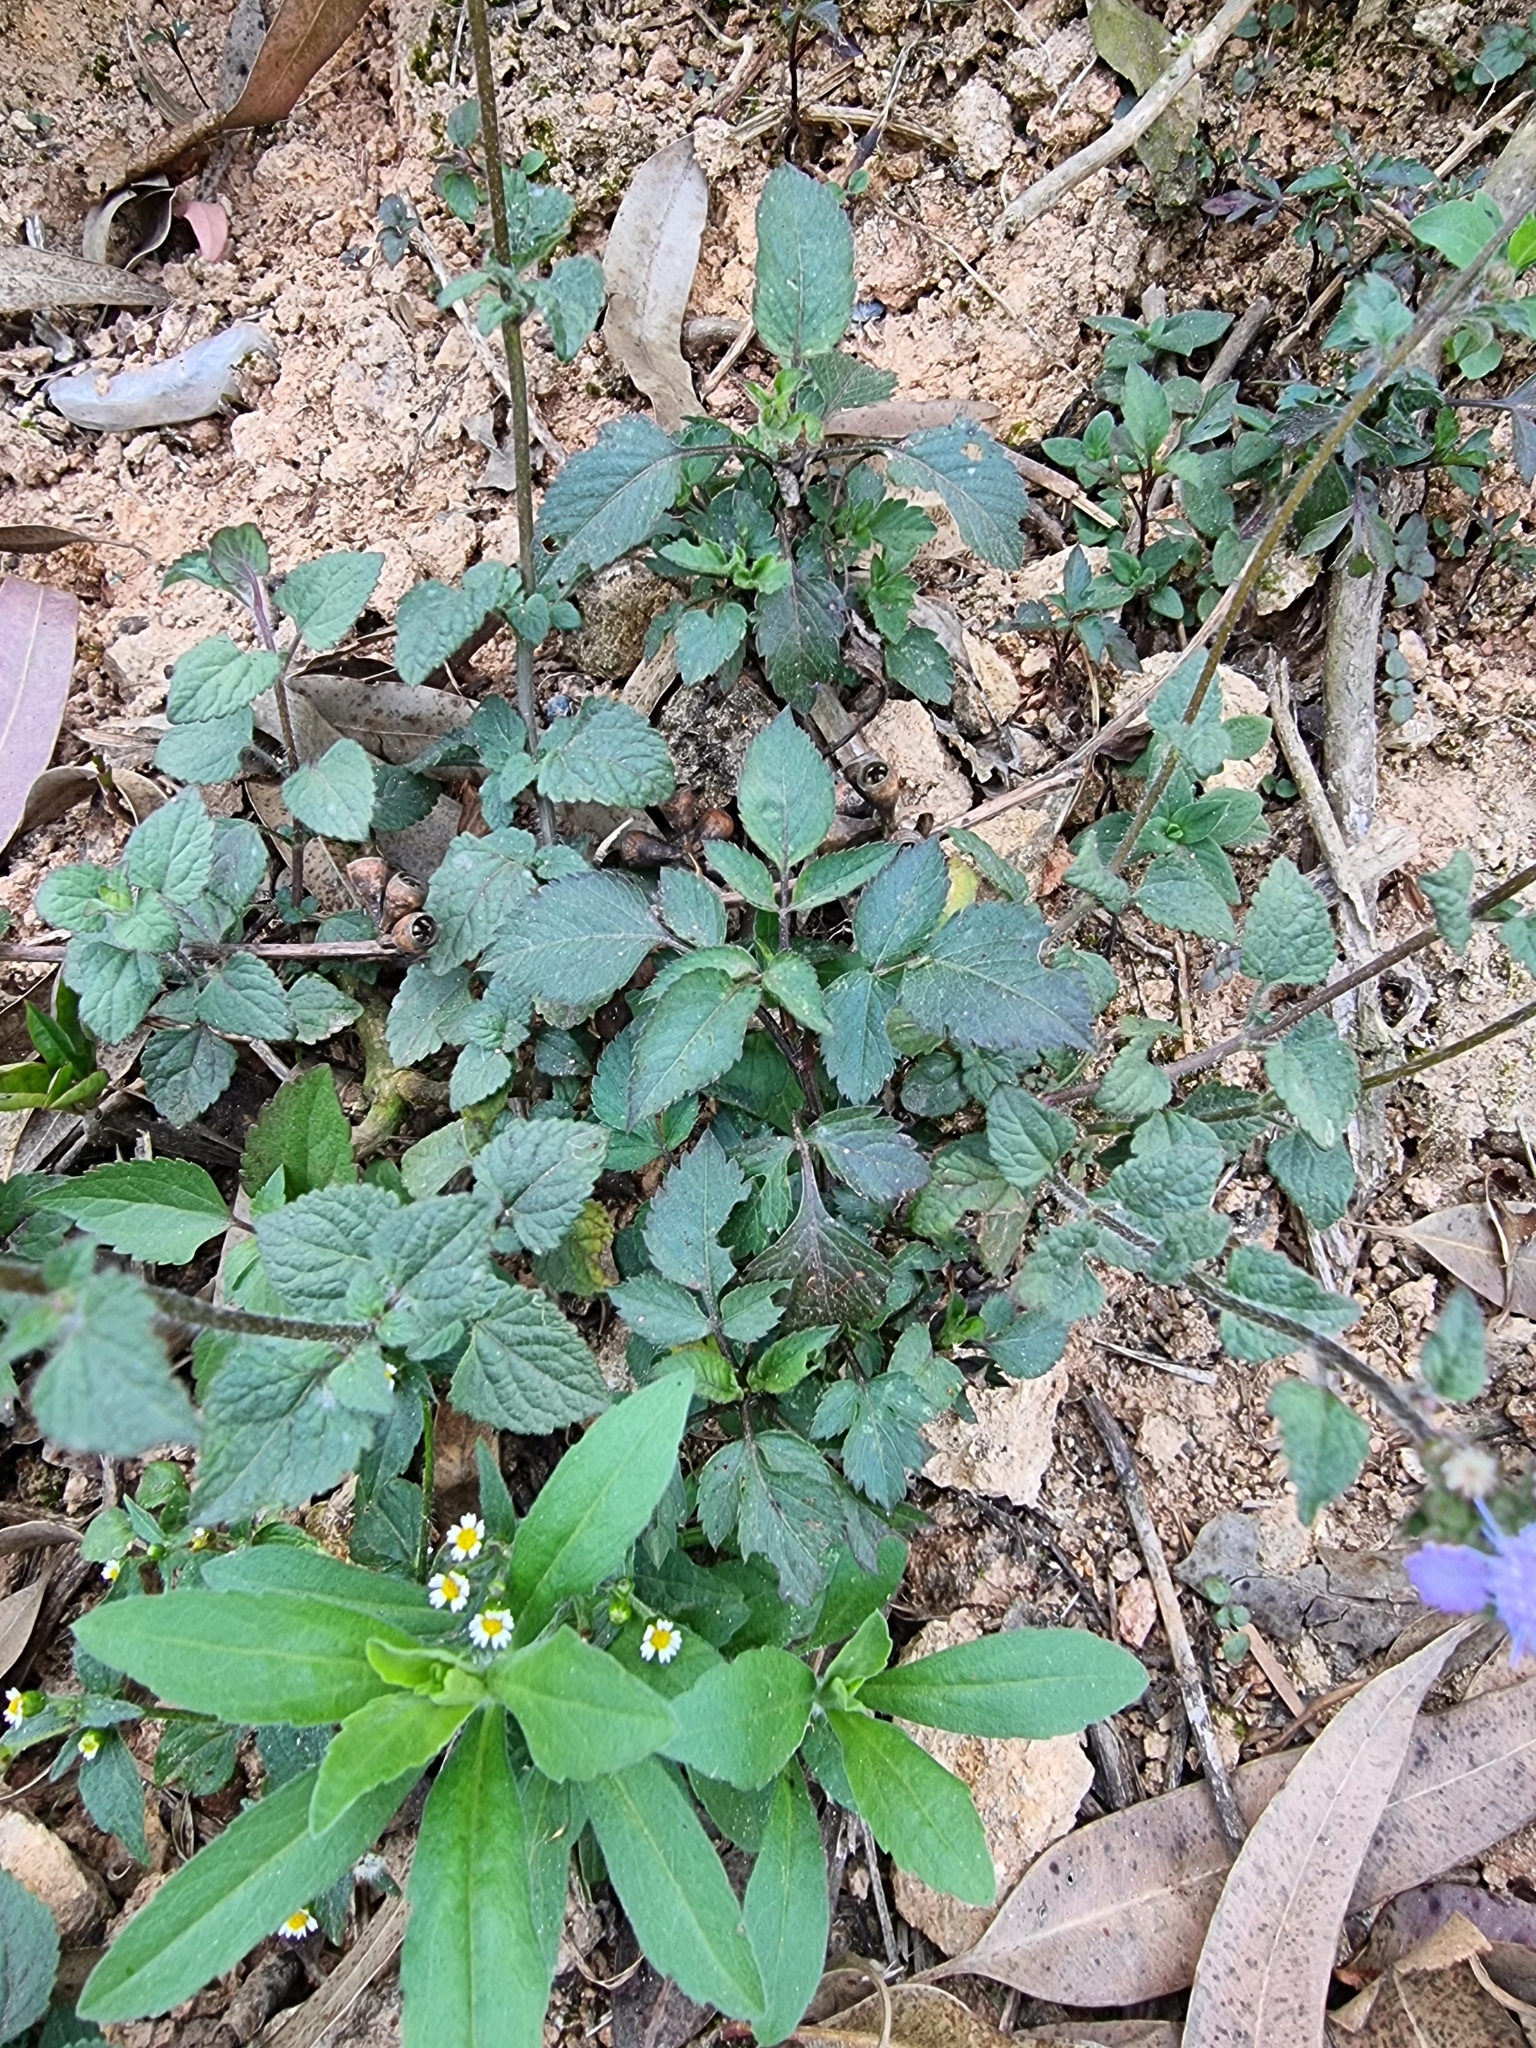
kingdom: Plantae
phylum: Tracheophyta
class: Magnoliopsida
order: Asterales
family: Asteraceae
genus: Ageratum
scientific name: Ageratum houstonianum
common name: Bluemink
